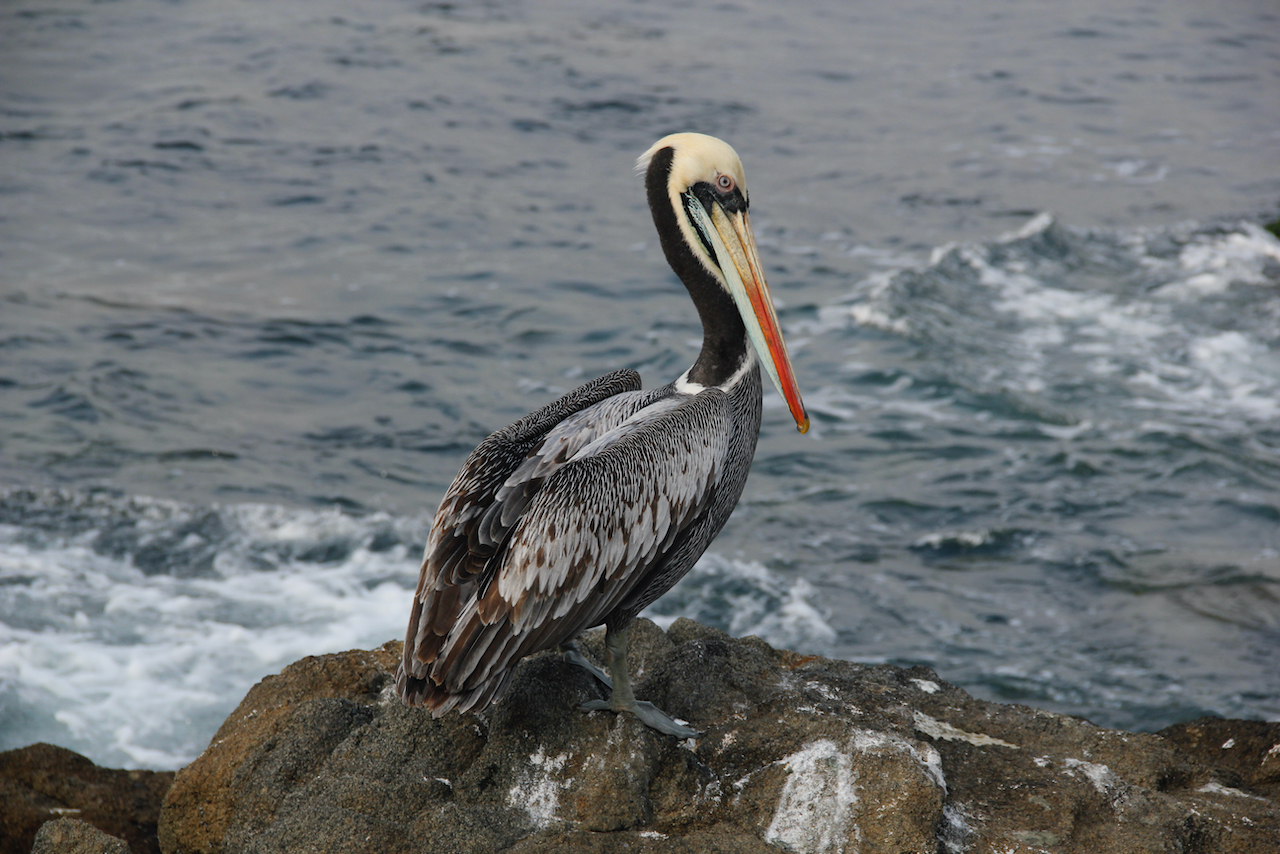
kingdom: Animalia
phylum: Chordata
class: Aves
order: Pelecaniformes
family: Pelecanidae
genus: Pelecanus
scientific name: Pelecanus thagus
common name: Peruvian pelican
